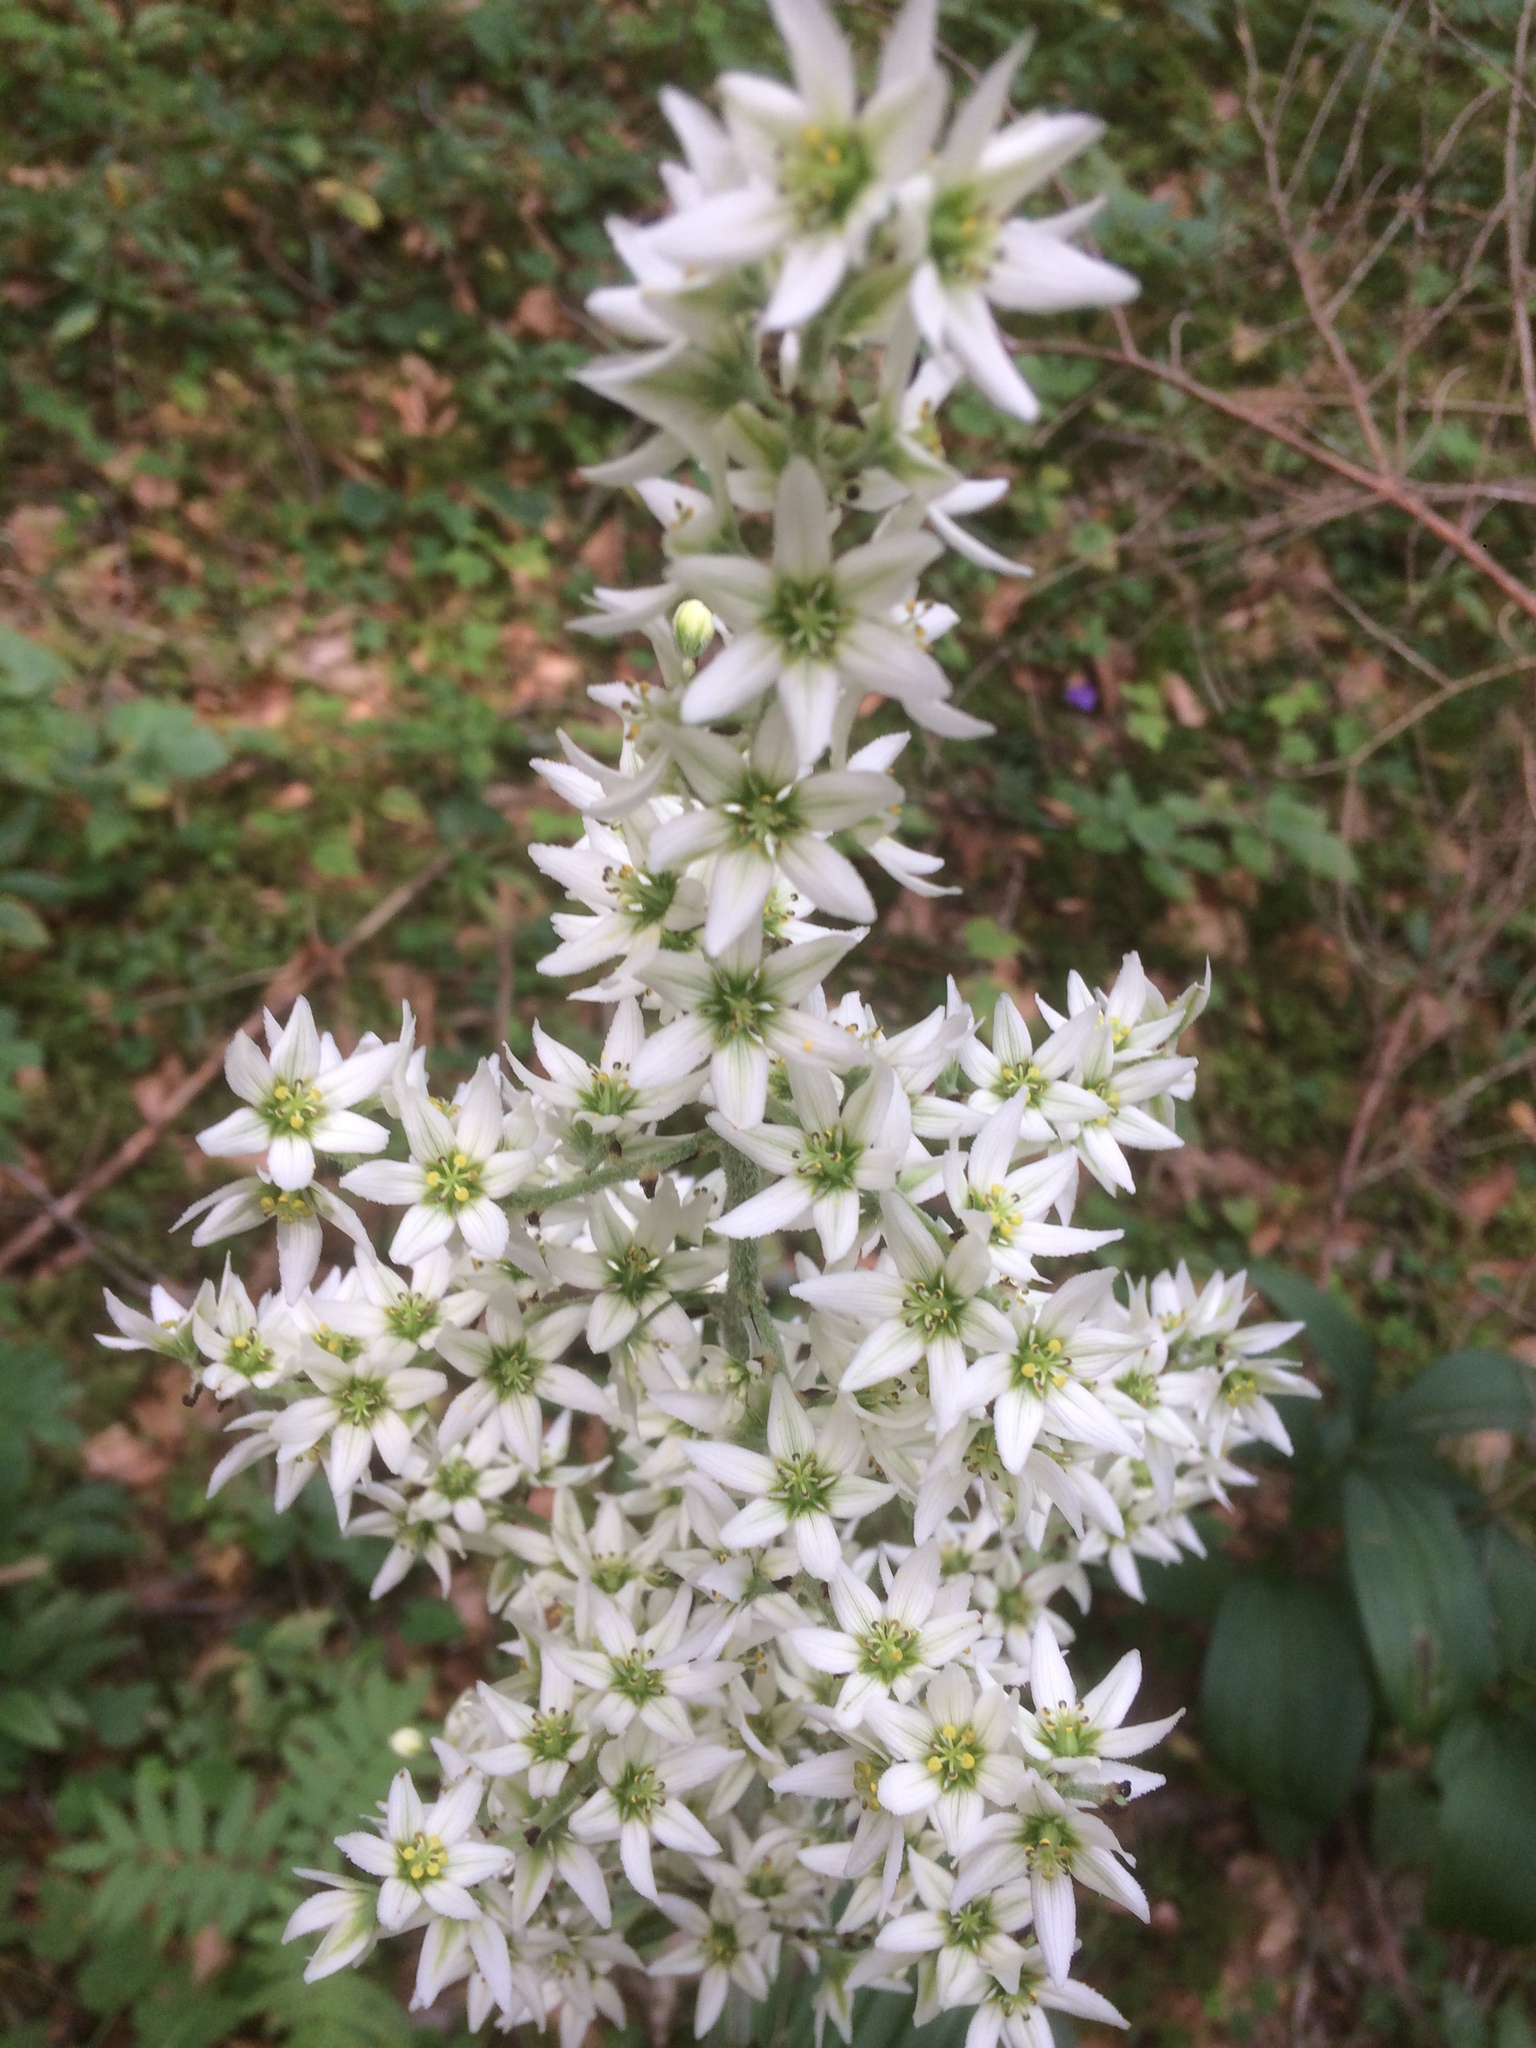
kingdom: Plantae
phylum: Tracheophyta
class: Liliopsida
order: Liliales
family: Melanthiaceae
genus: Veratrum
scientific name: Veratrum album
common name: White veratrum
